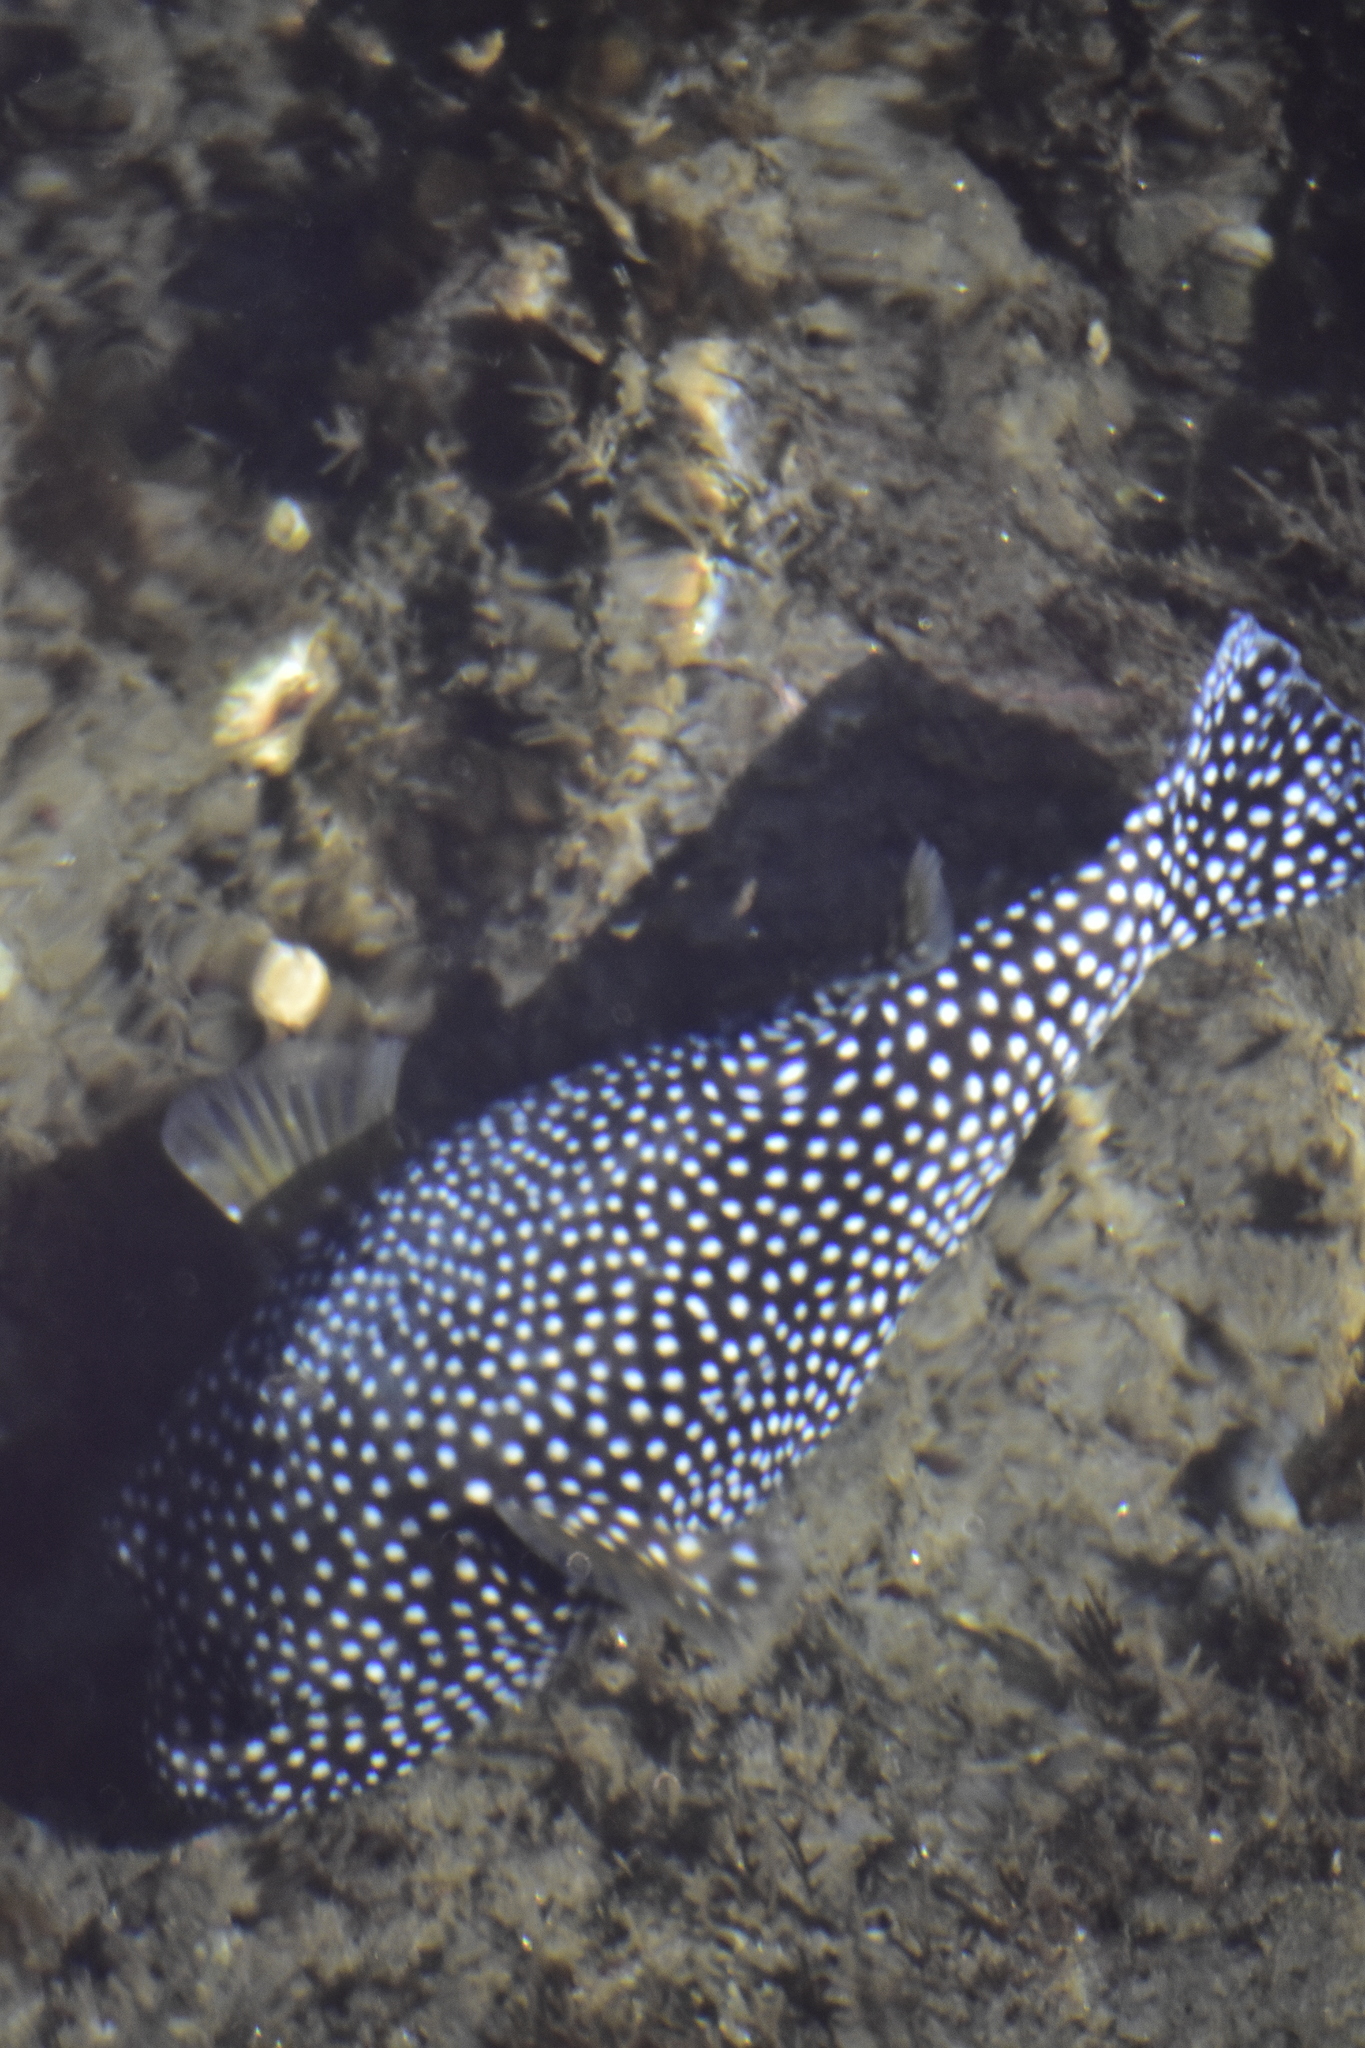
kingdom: Animalia
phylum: Chordata
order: Tetraodontiformes
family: Tetraodontidae
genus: Arothron
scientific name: Arothron meleagris
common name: Guinea-fowl pufferfish
